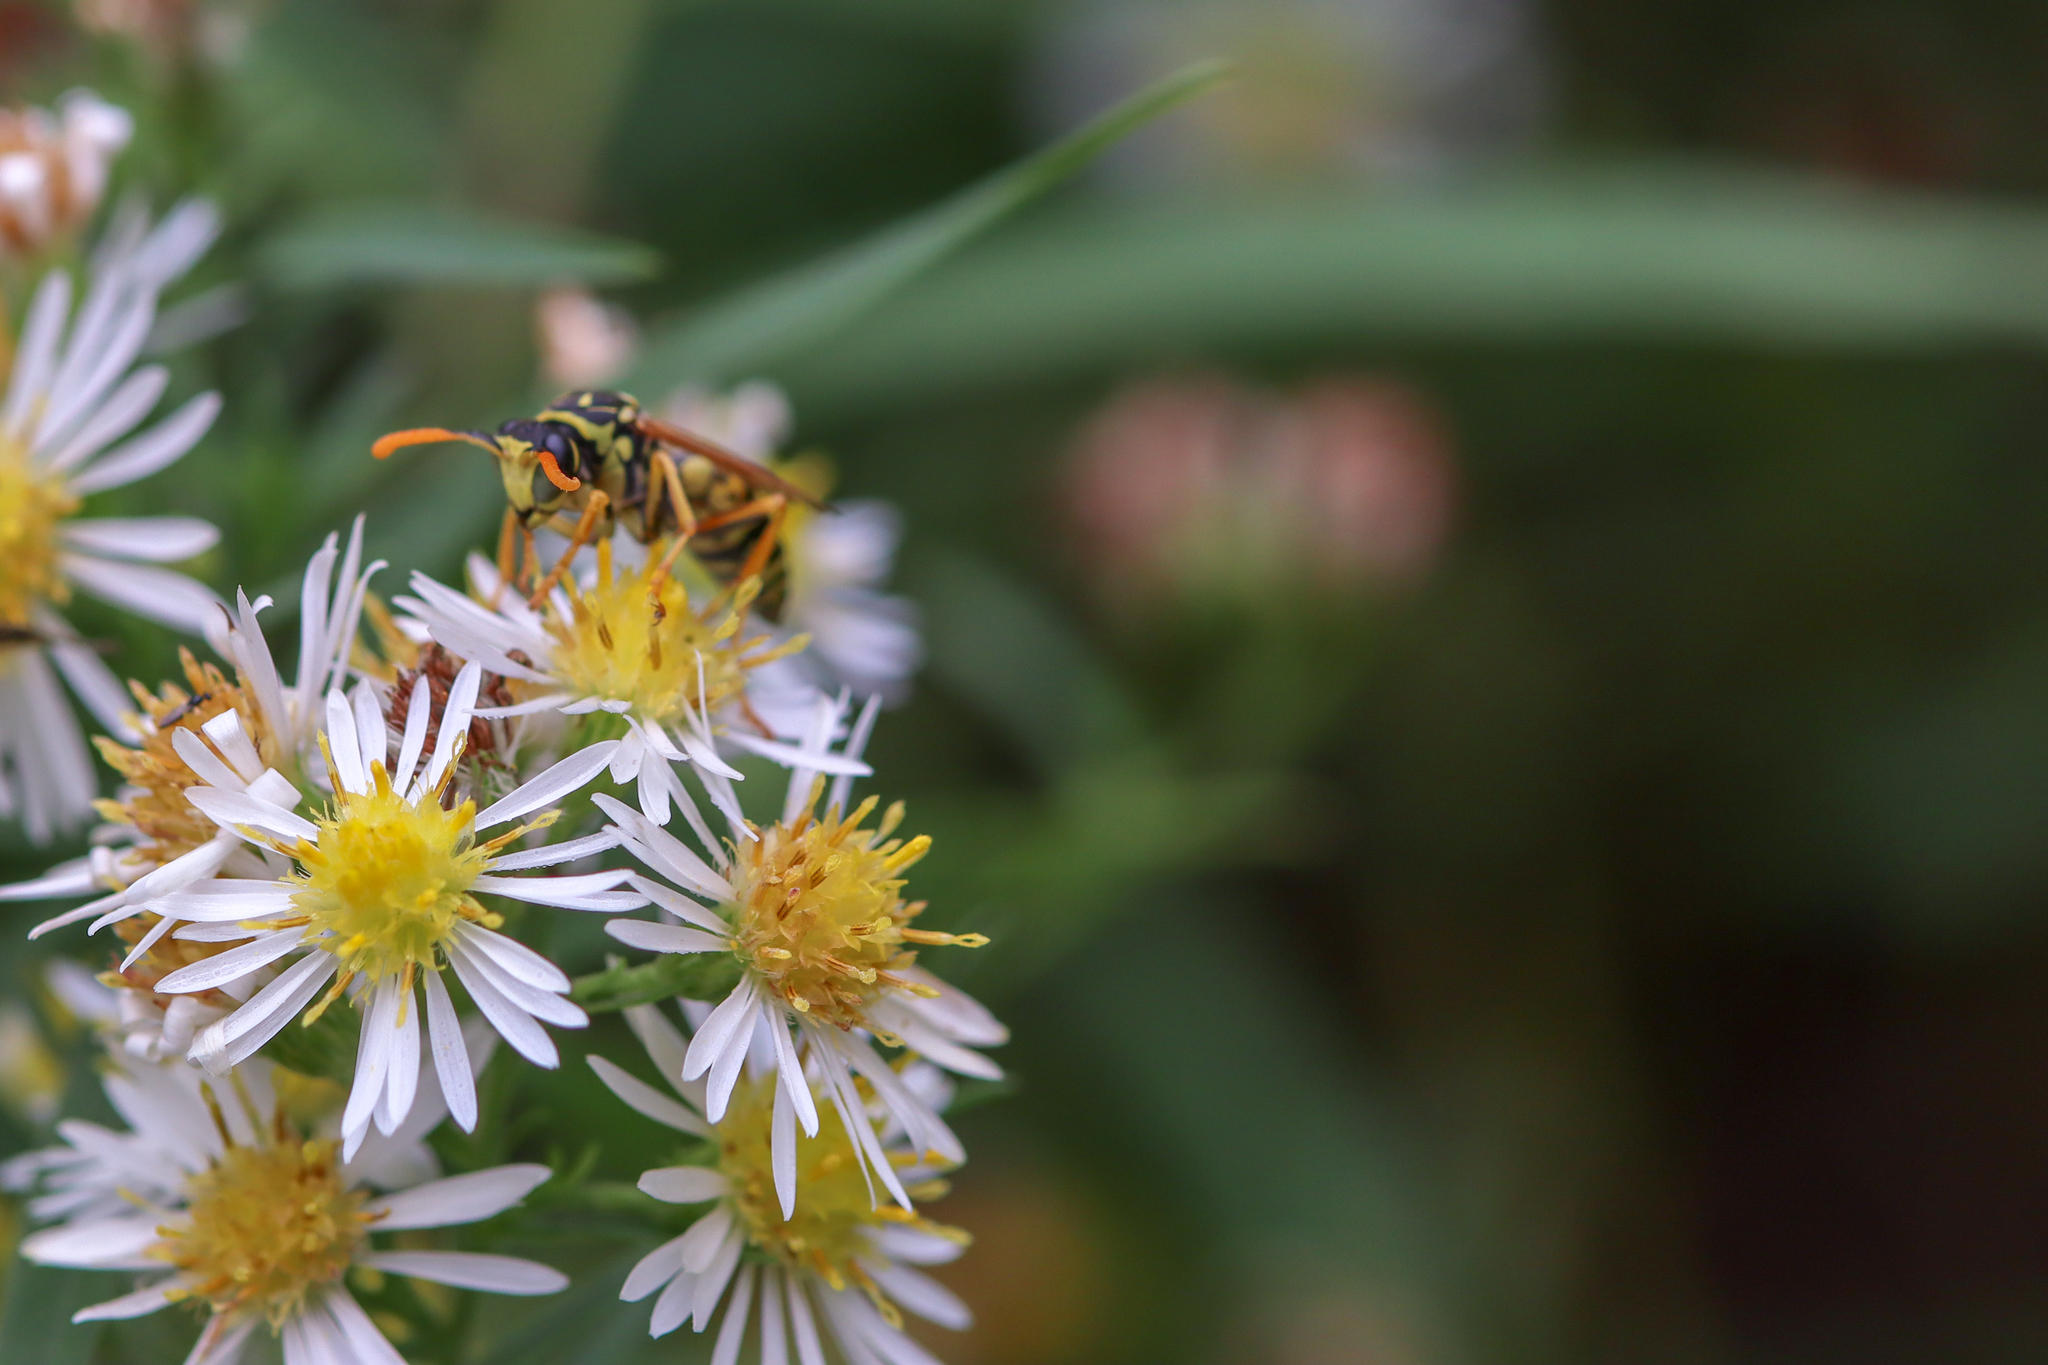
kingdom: Animalia
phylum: Arthropoda
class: Insecta
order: Hymenoptera
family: Eumenidae
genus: Polistes
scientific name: Polistes dominula
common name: Paper wasp
